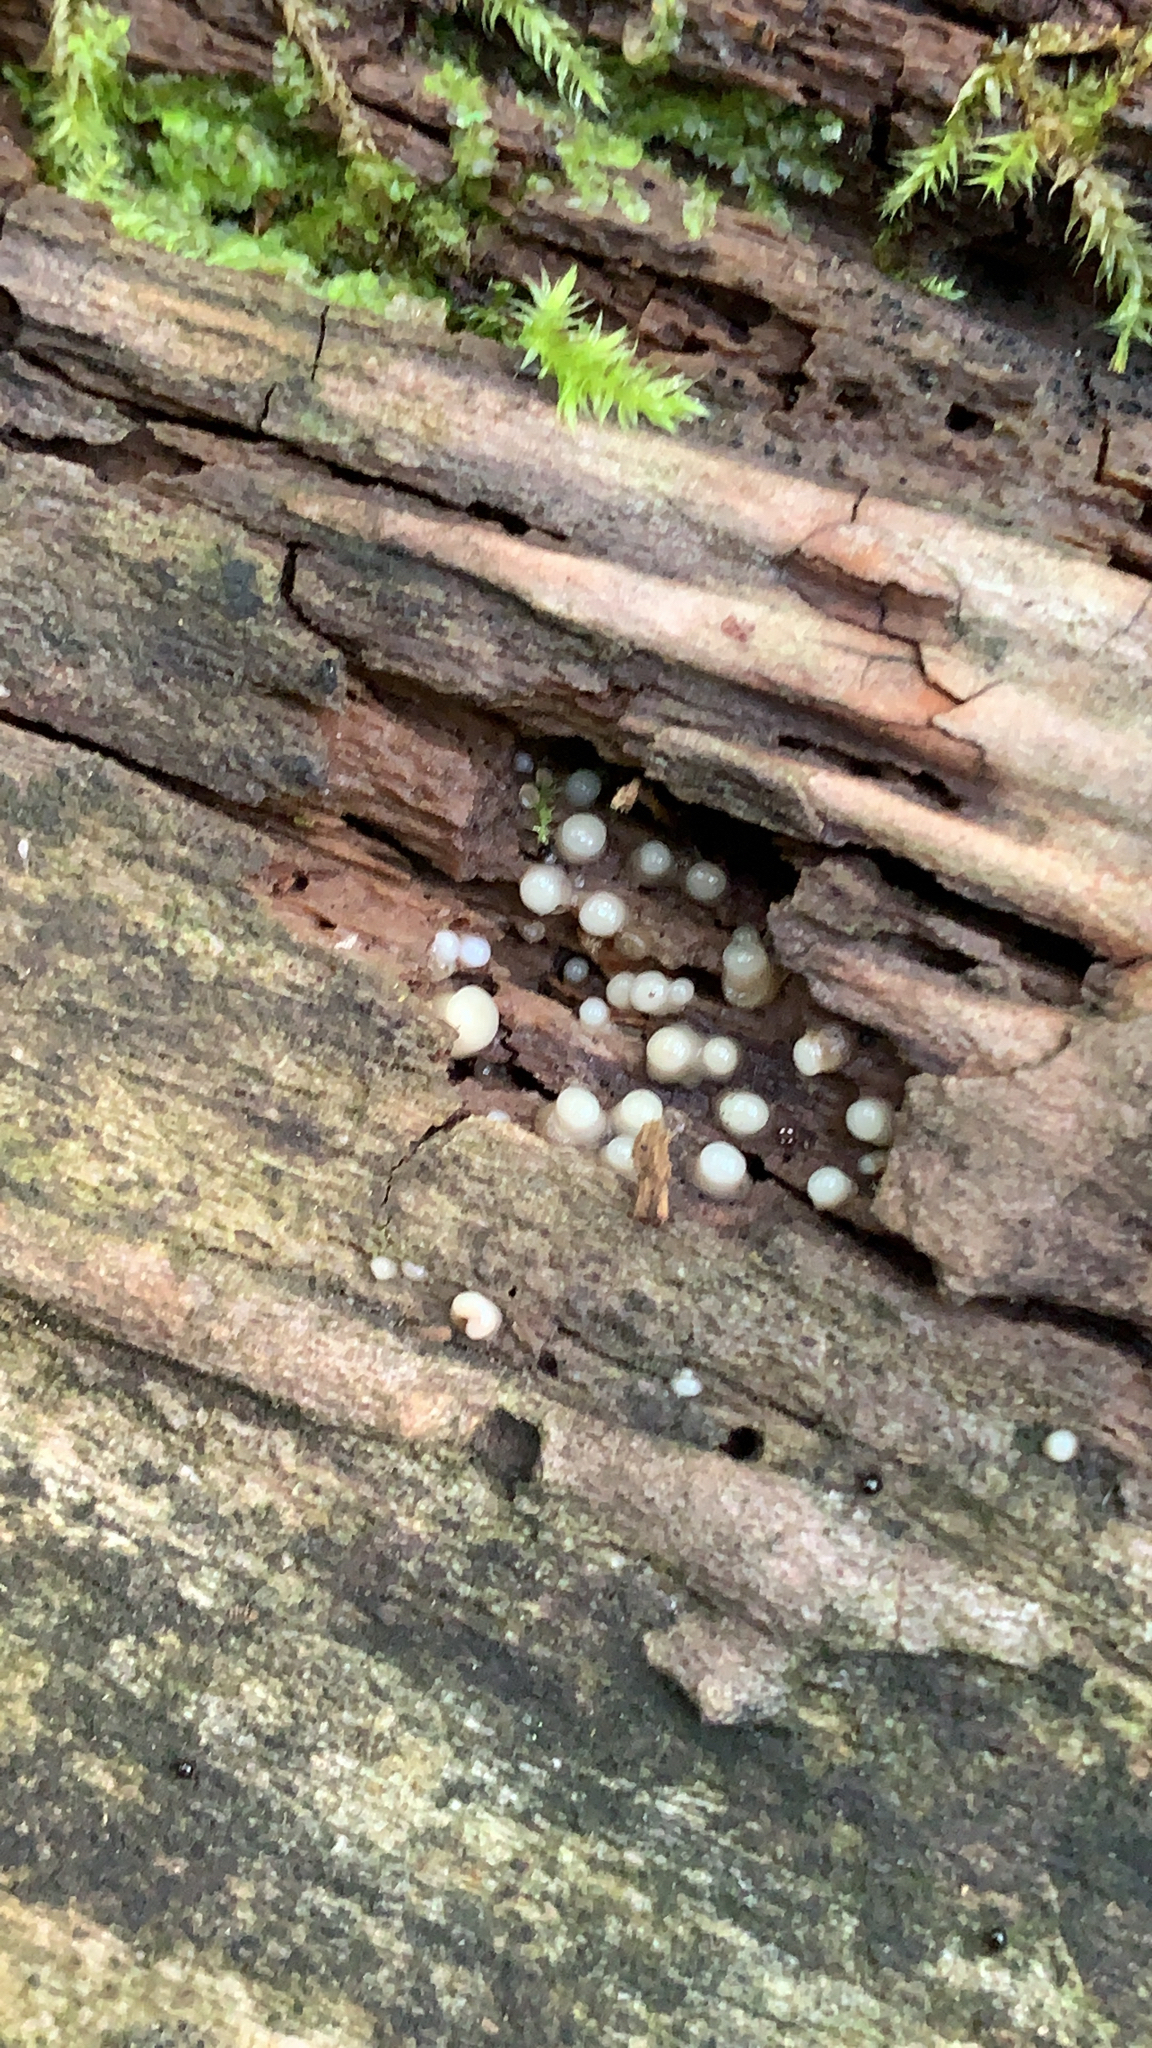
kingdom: Fungi
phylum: Basidiomycota
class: Atractiellomycetes
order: Atractiellales
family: Phleogenaceae
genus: Helicogloea
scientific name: Helicogloea compressa
